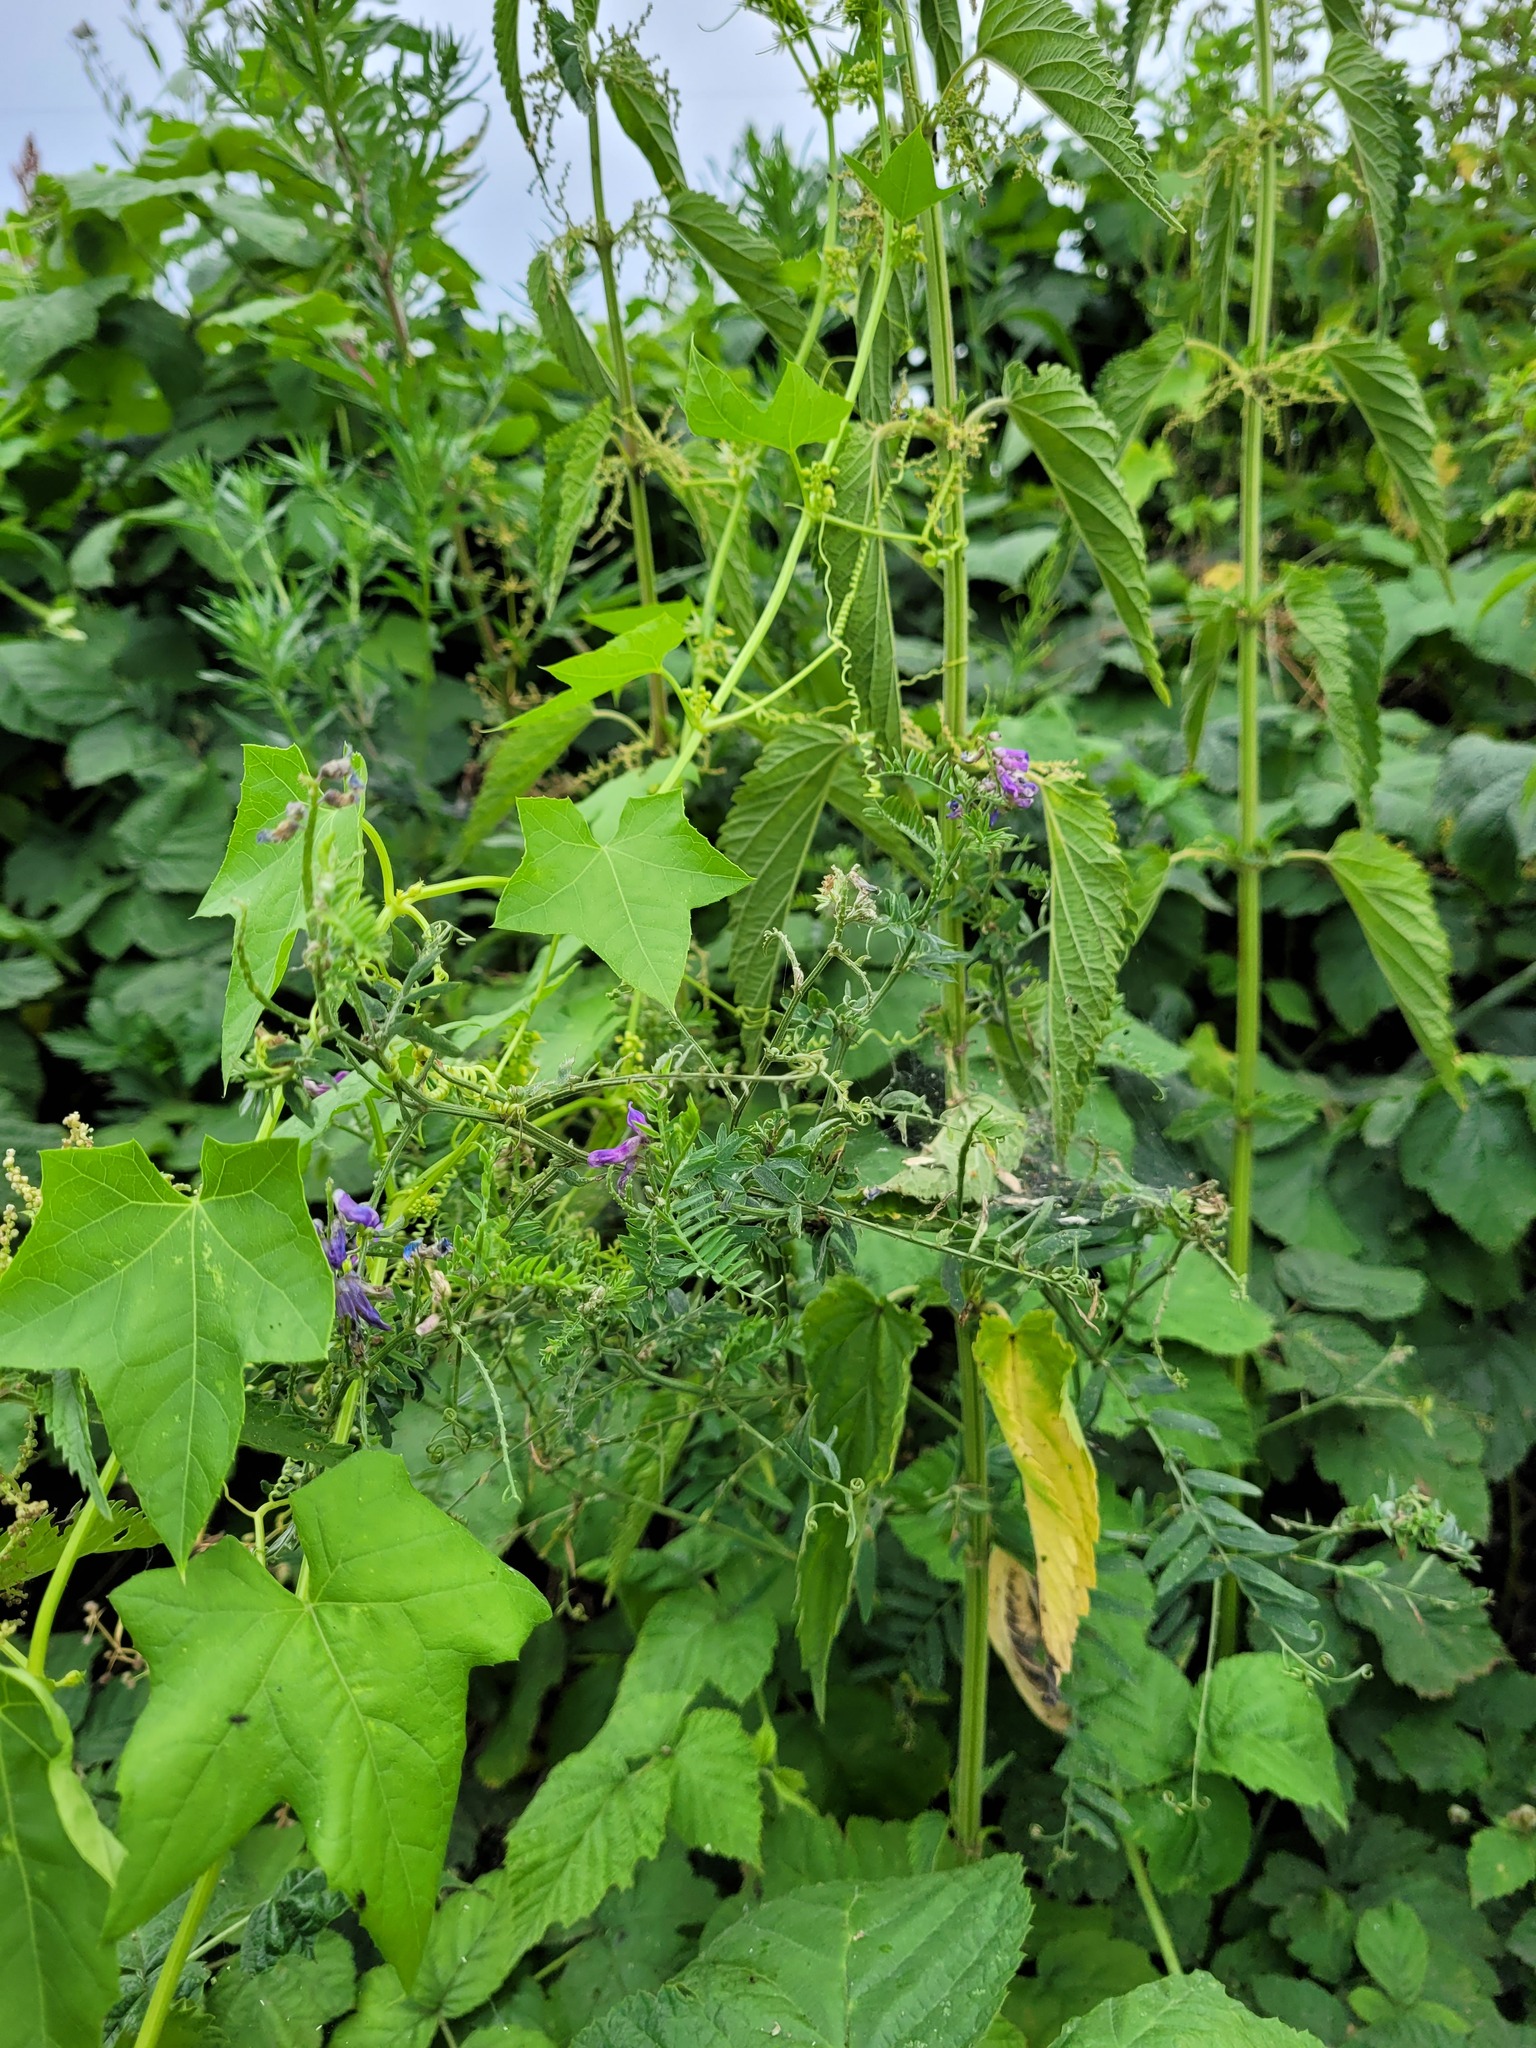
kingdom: Plantae
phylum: Tracheophyta
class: Magnoliopsida
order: Fabales
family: Fabaceae
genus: Vicia
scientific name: Vicia cracca
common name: Bird vetch
